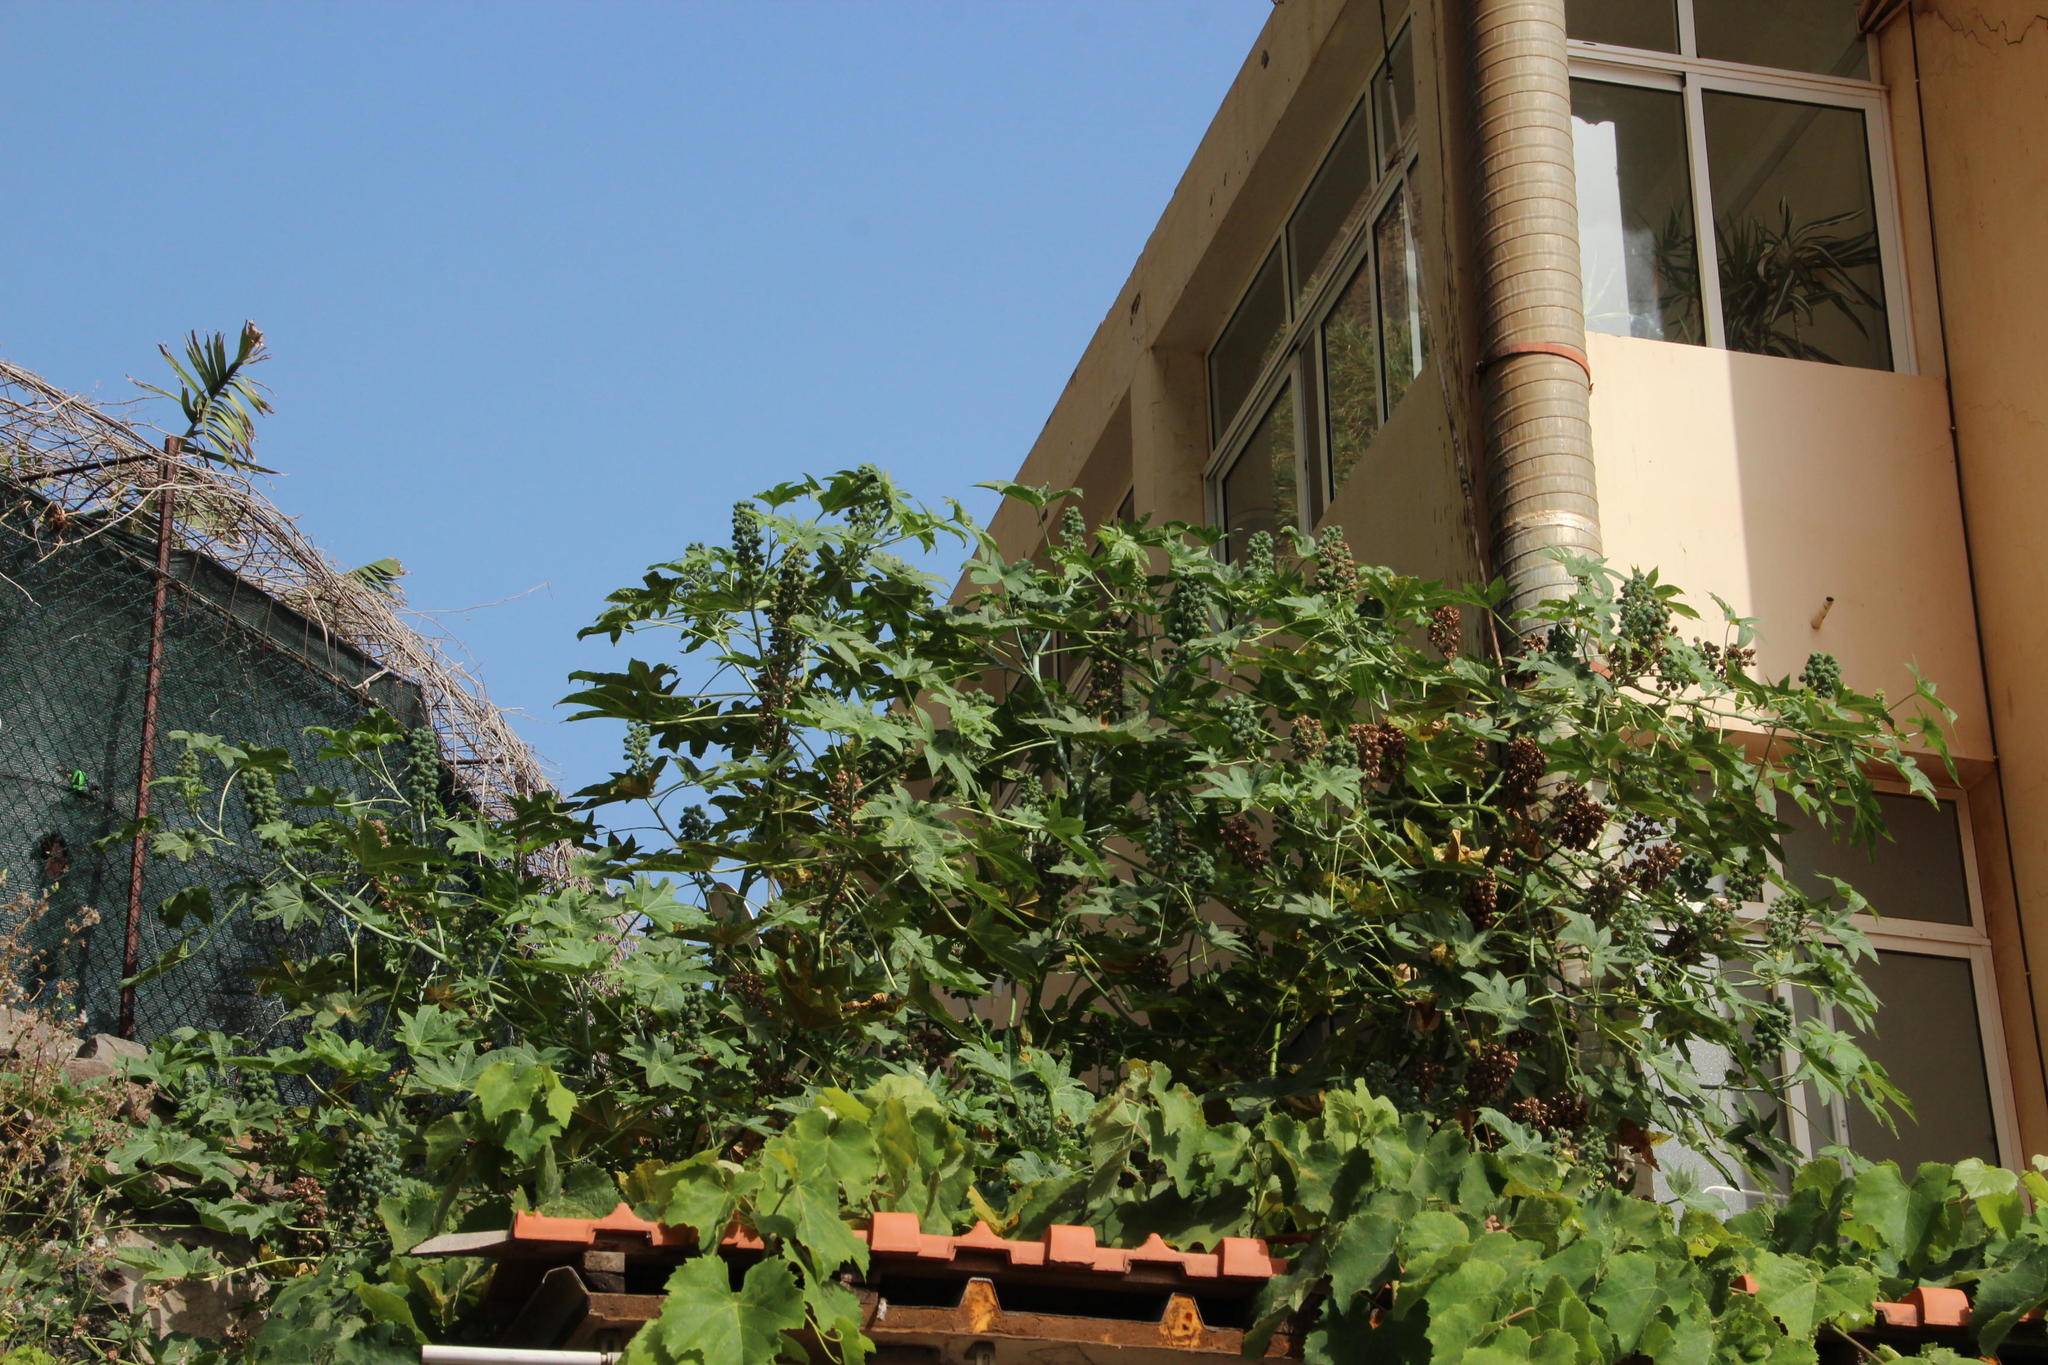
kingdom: Plantae
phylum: Tracheophyta
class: Magnoliopsida
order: Malpighiales
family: Euphorbiaceae
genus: Ricinus
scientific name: Ricinus communis
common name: Castor-oil-plant
